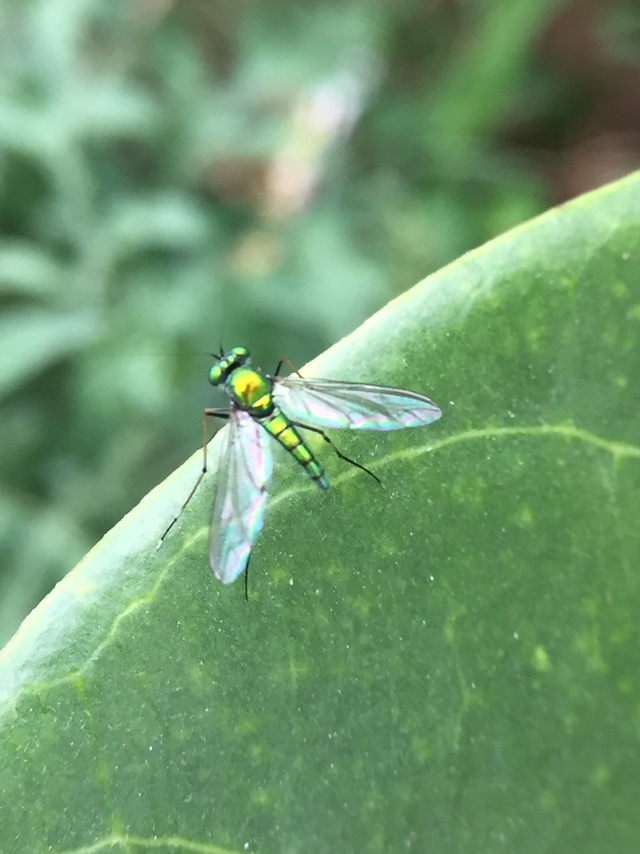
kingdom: Animalia
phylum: Arthropoda
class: Insecta
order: Diptera
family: Dolichopodidae
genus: Chrysosoma
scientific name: Chrysosoma leucopogon
